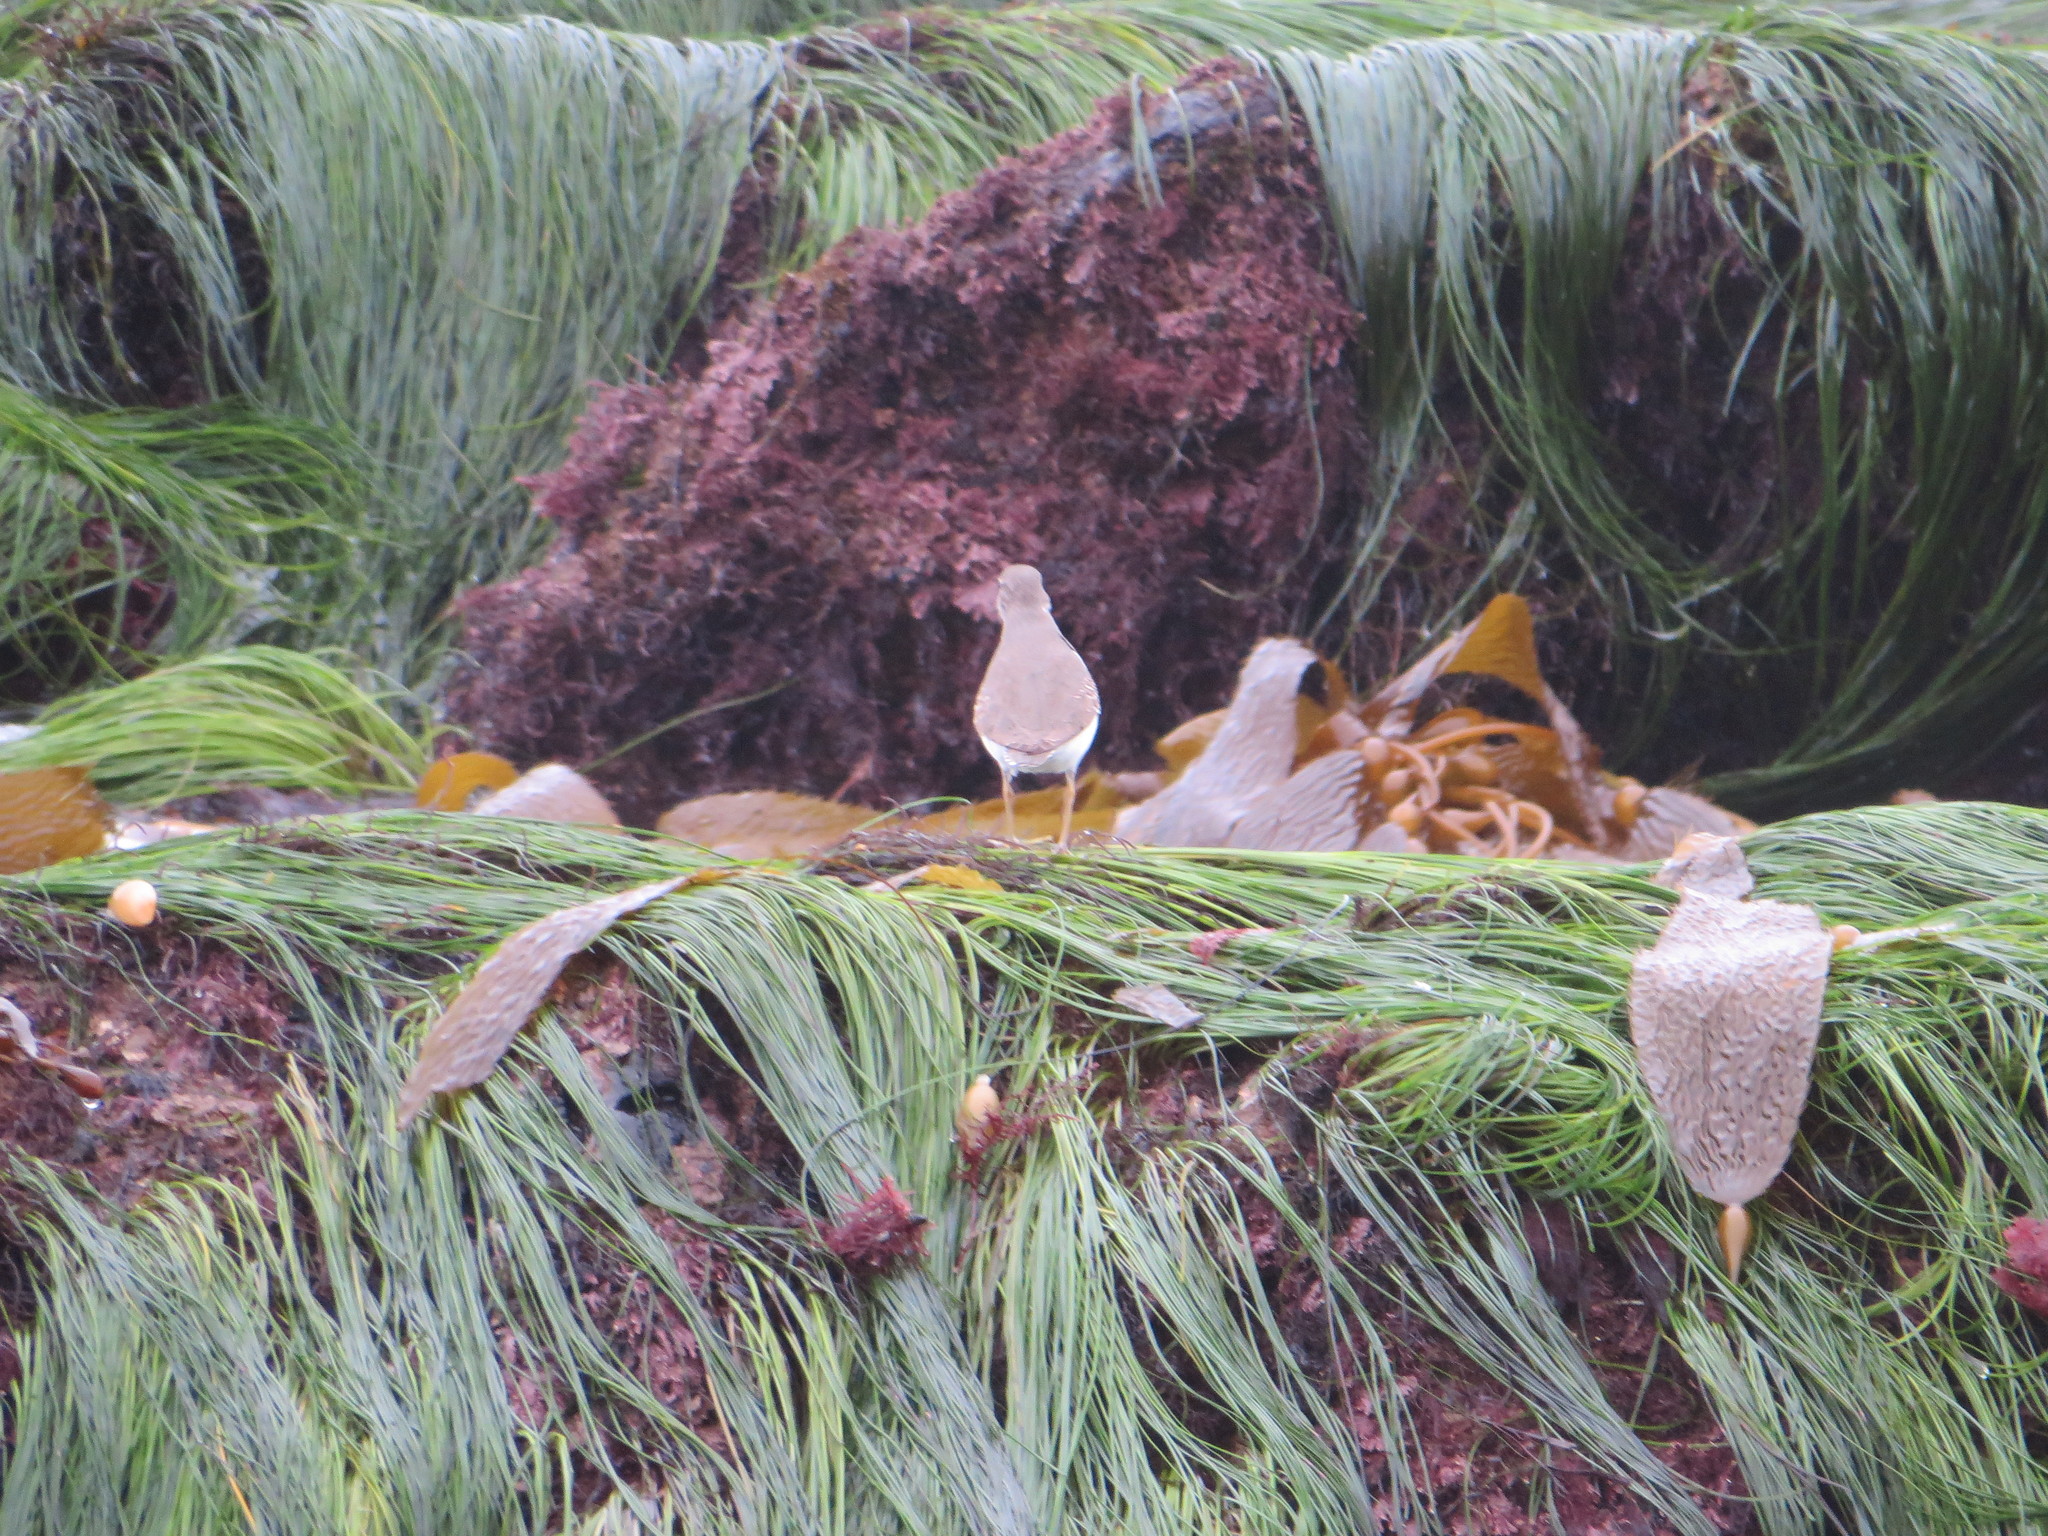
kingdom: Animalia
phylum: Chordata
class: Aves
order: Charadriiformes
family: Scolopacidae
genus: Actitis
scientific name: Actitis macularius
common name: Spotted sandpiper
